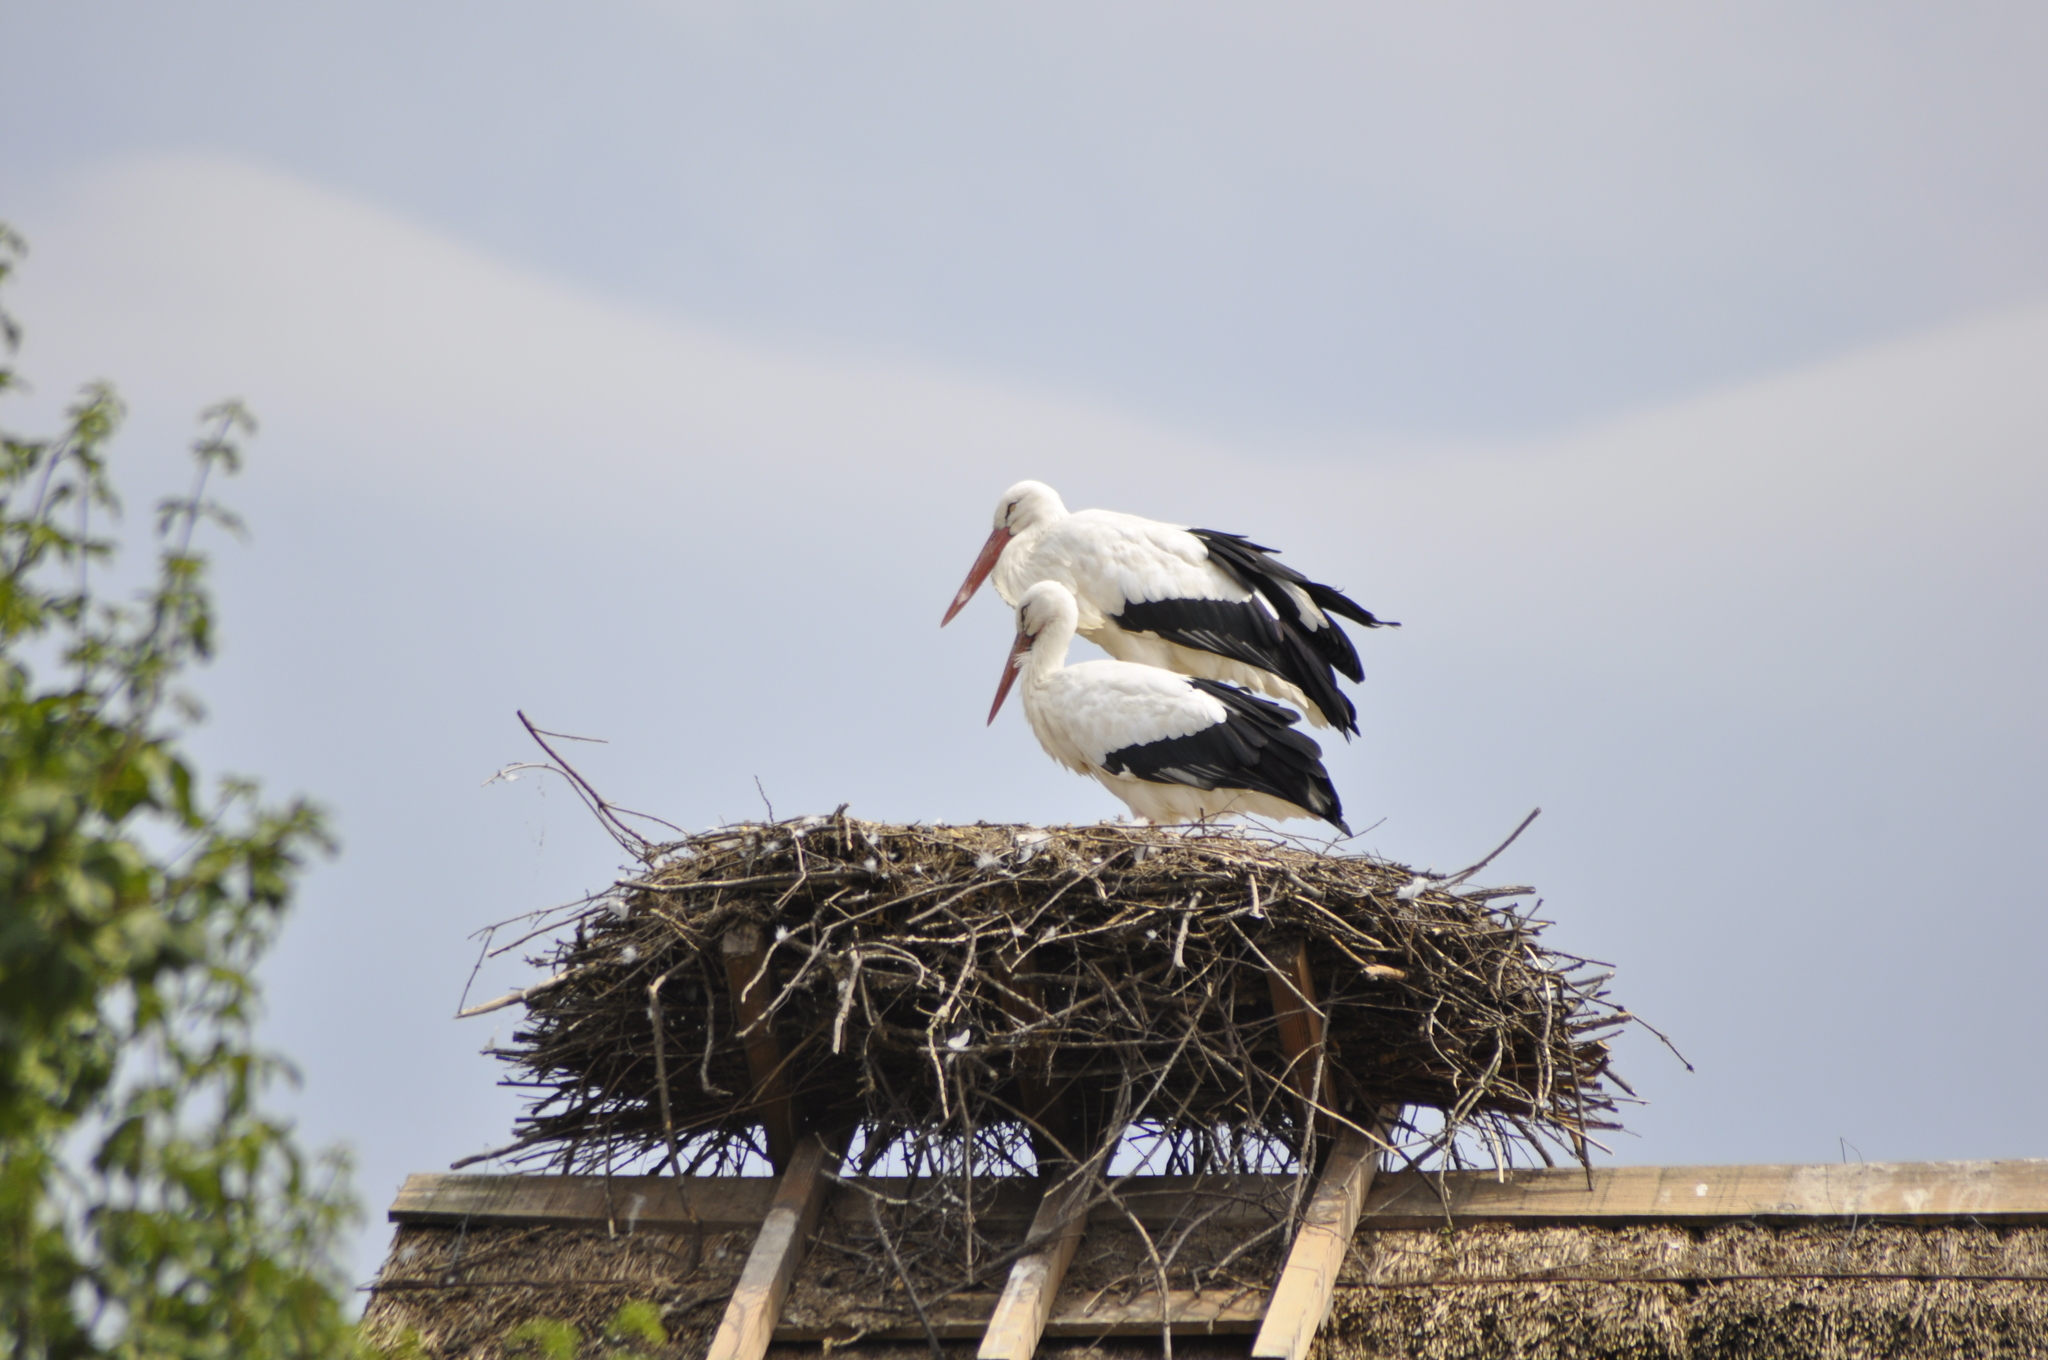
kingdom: Animalia
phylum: Chordata
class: Aves
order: Ciconiiformes
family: Ciconiidae
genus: Ciconia
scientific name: Ciconia ciconia
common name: White stork
